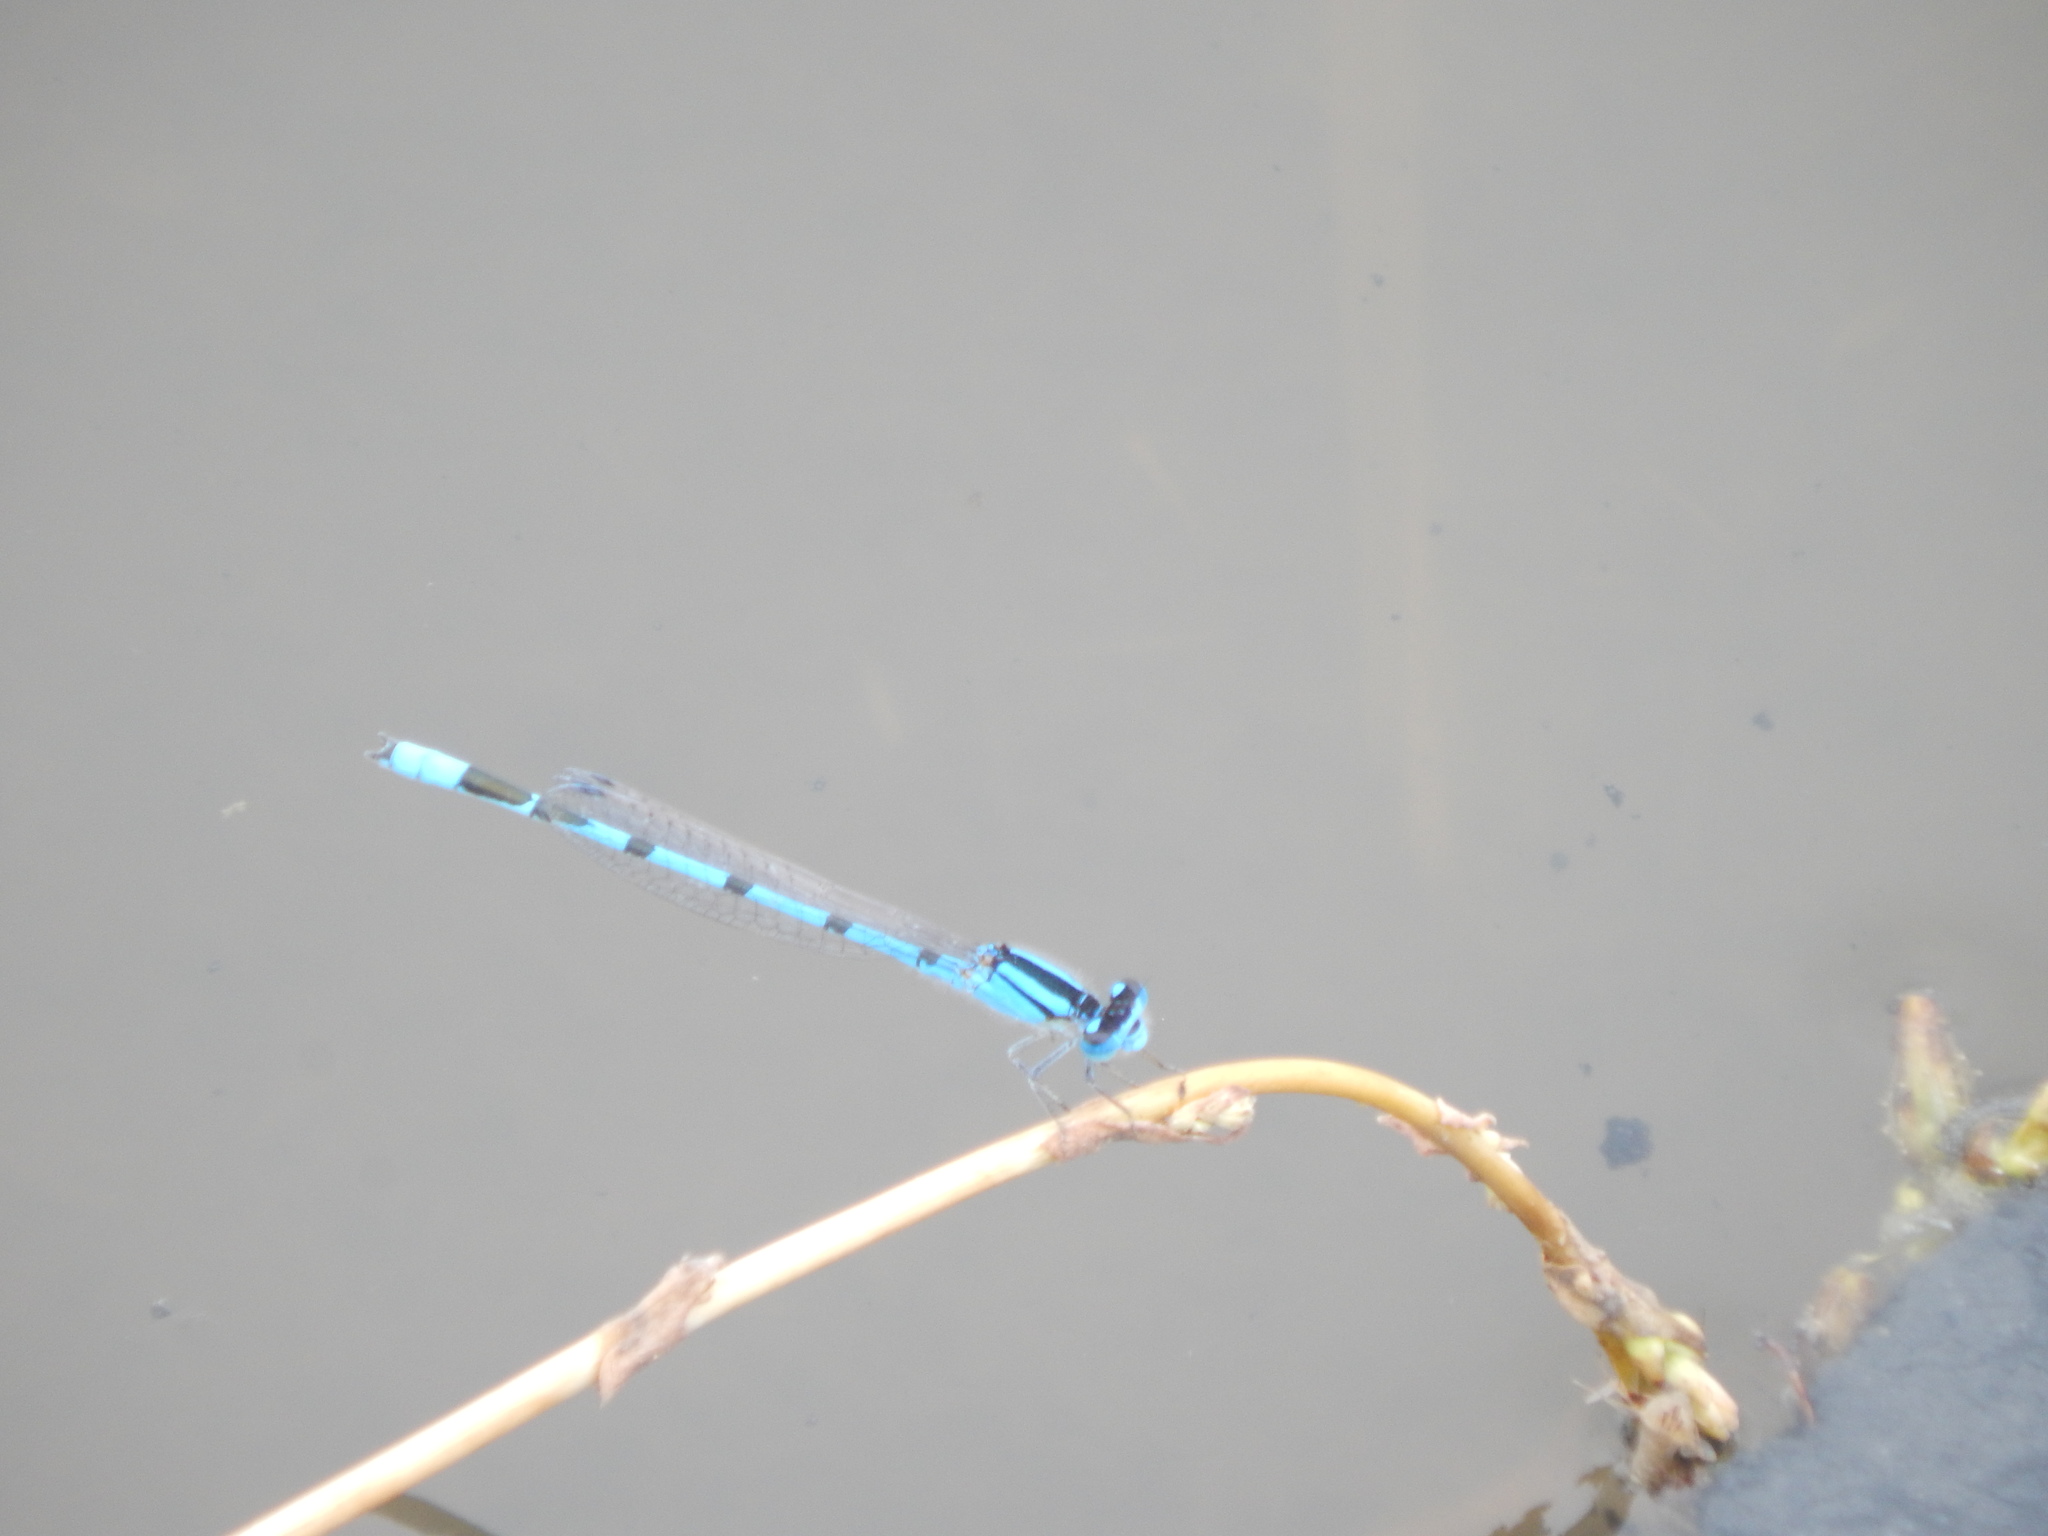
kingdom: Animalia
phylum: Arthropoda
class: Insecta
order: Odonata
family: Coenagrionidae
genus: Enallagma
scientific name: Enallagma civile
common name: Damselfly
